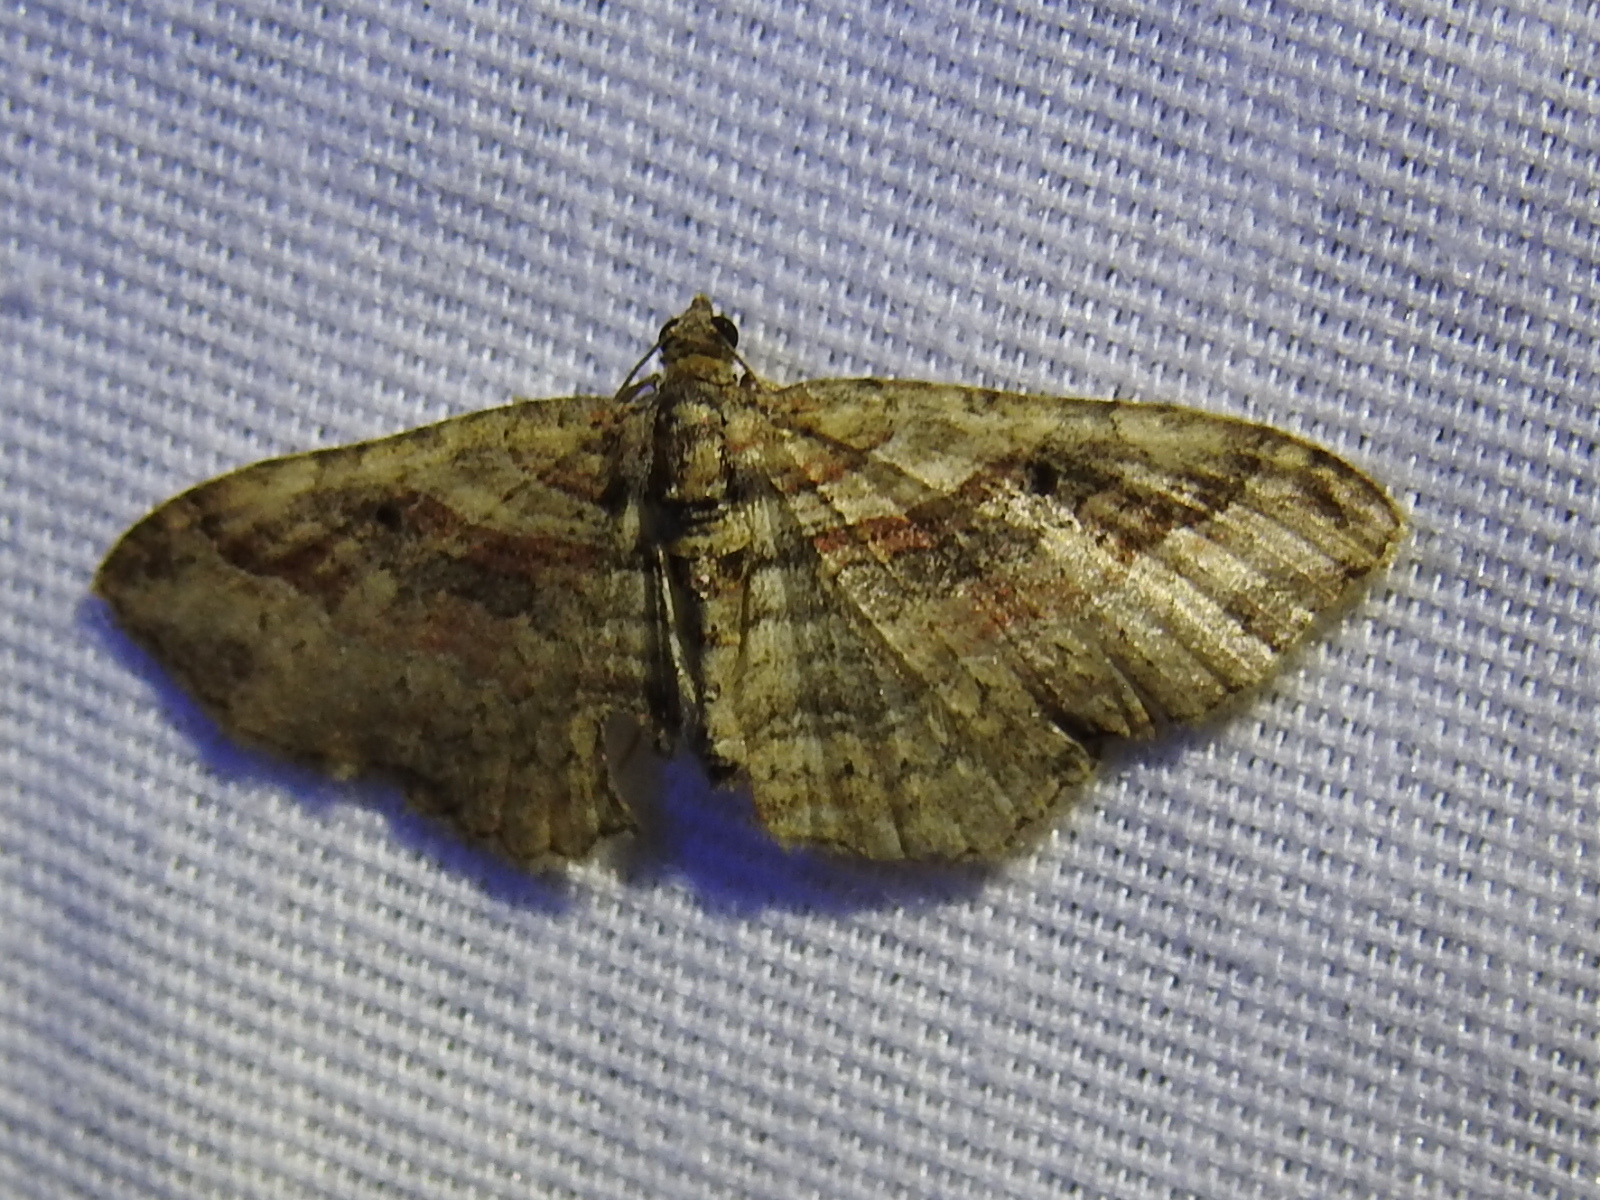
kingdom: Animalia
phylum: Arthropoda
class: Insecta
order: Lepidoptera
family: Geometridae
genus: Costaconvexa
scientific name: Costaconvexa centrostrigaria
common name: Bent-line carpet
